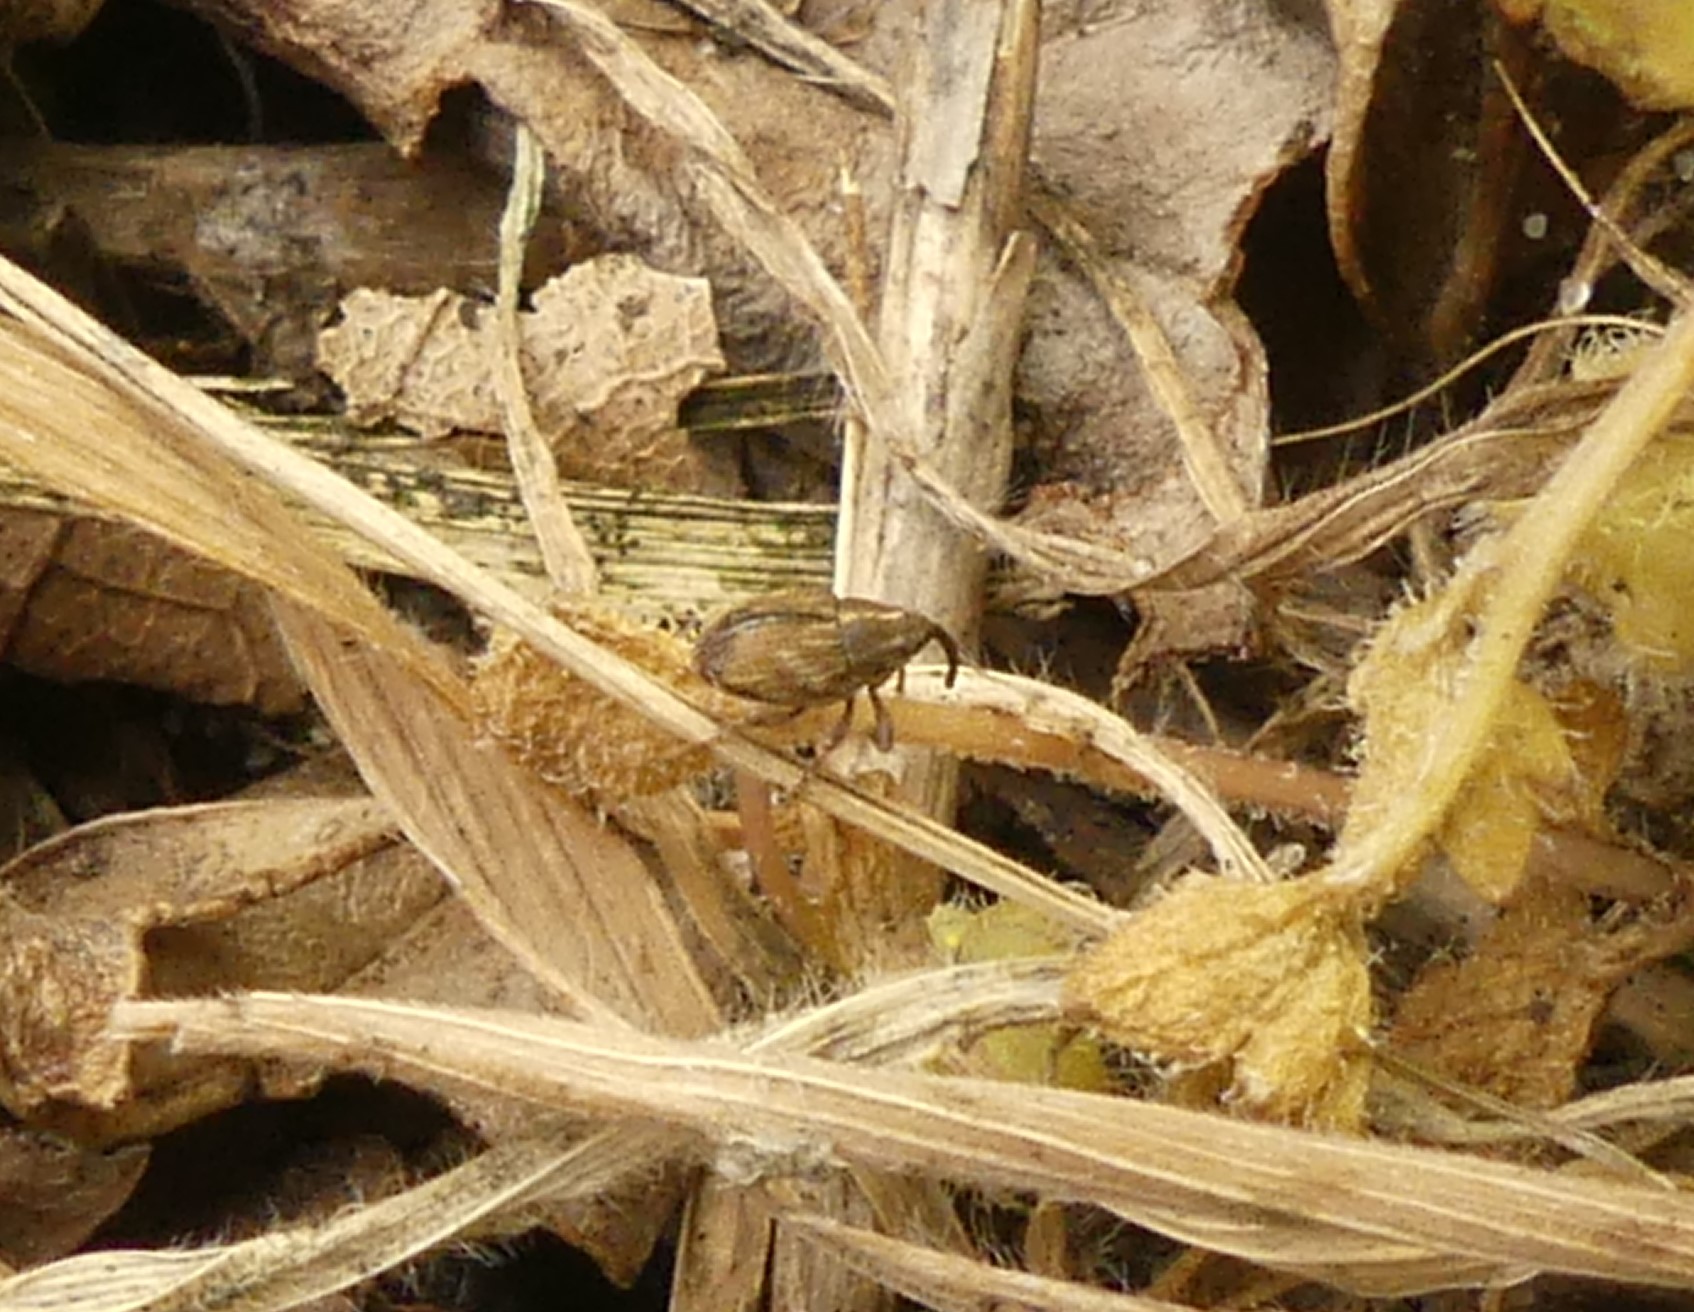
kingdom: Animalia
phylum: Arthropoda
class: Insecta
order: Coleoptera
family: Curculionidae
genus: Trichosirocalus
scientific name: Trichosirocalus troglodytes
